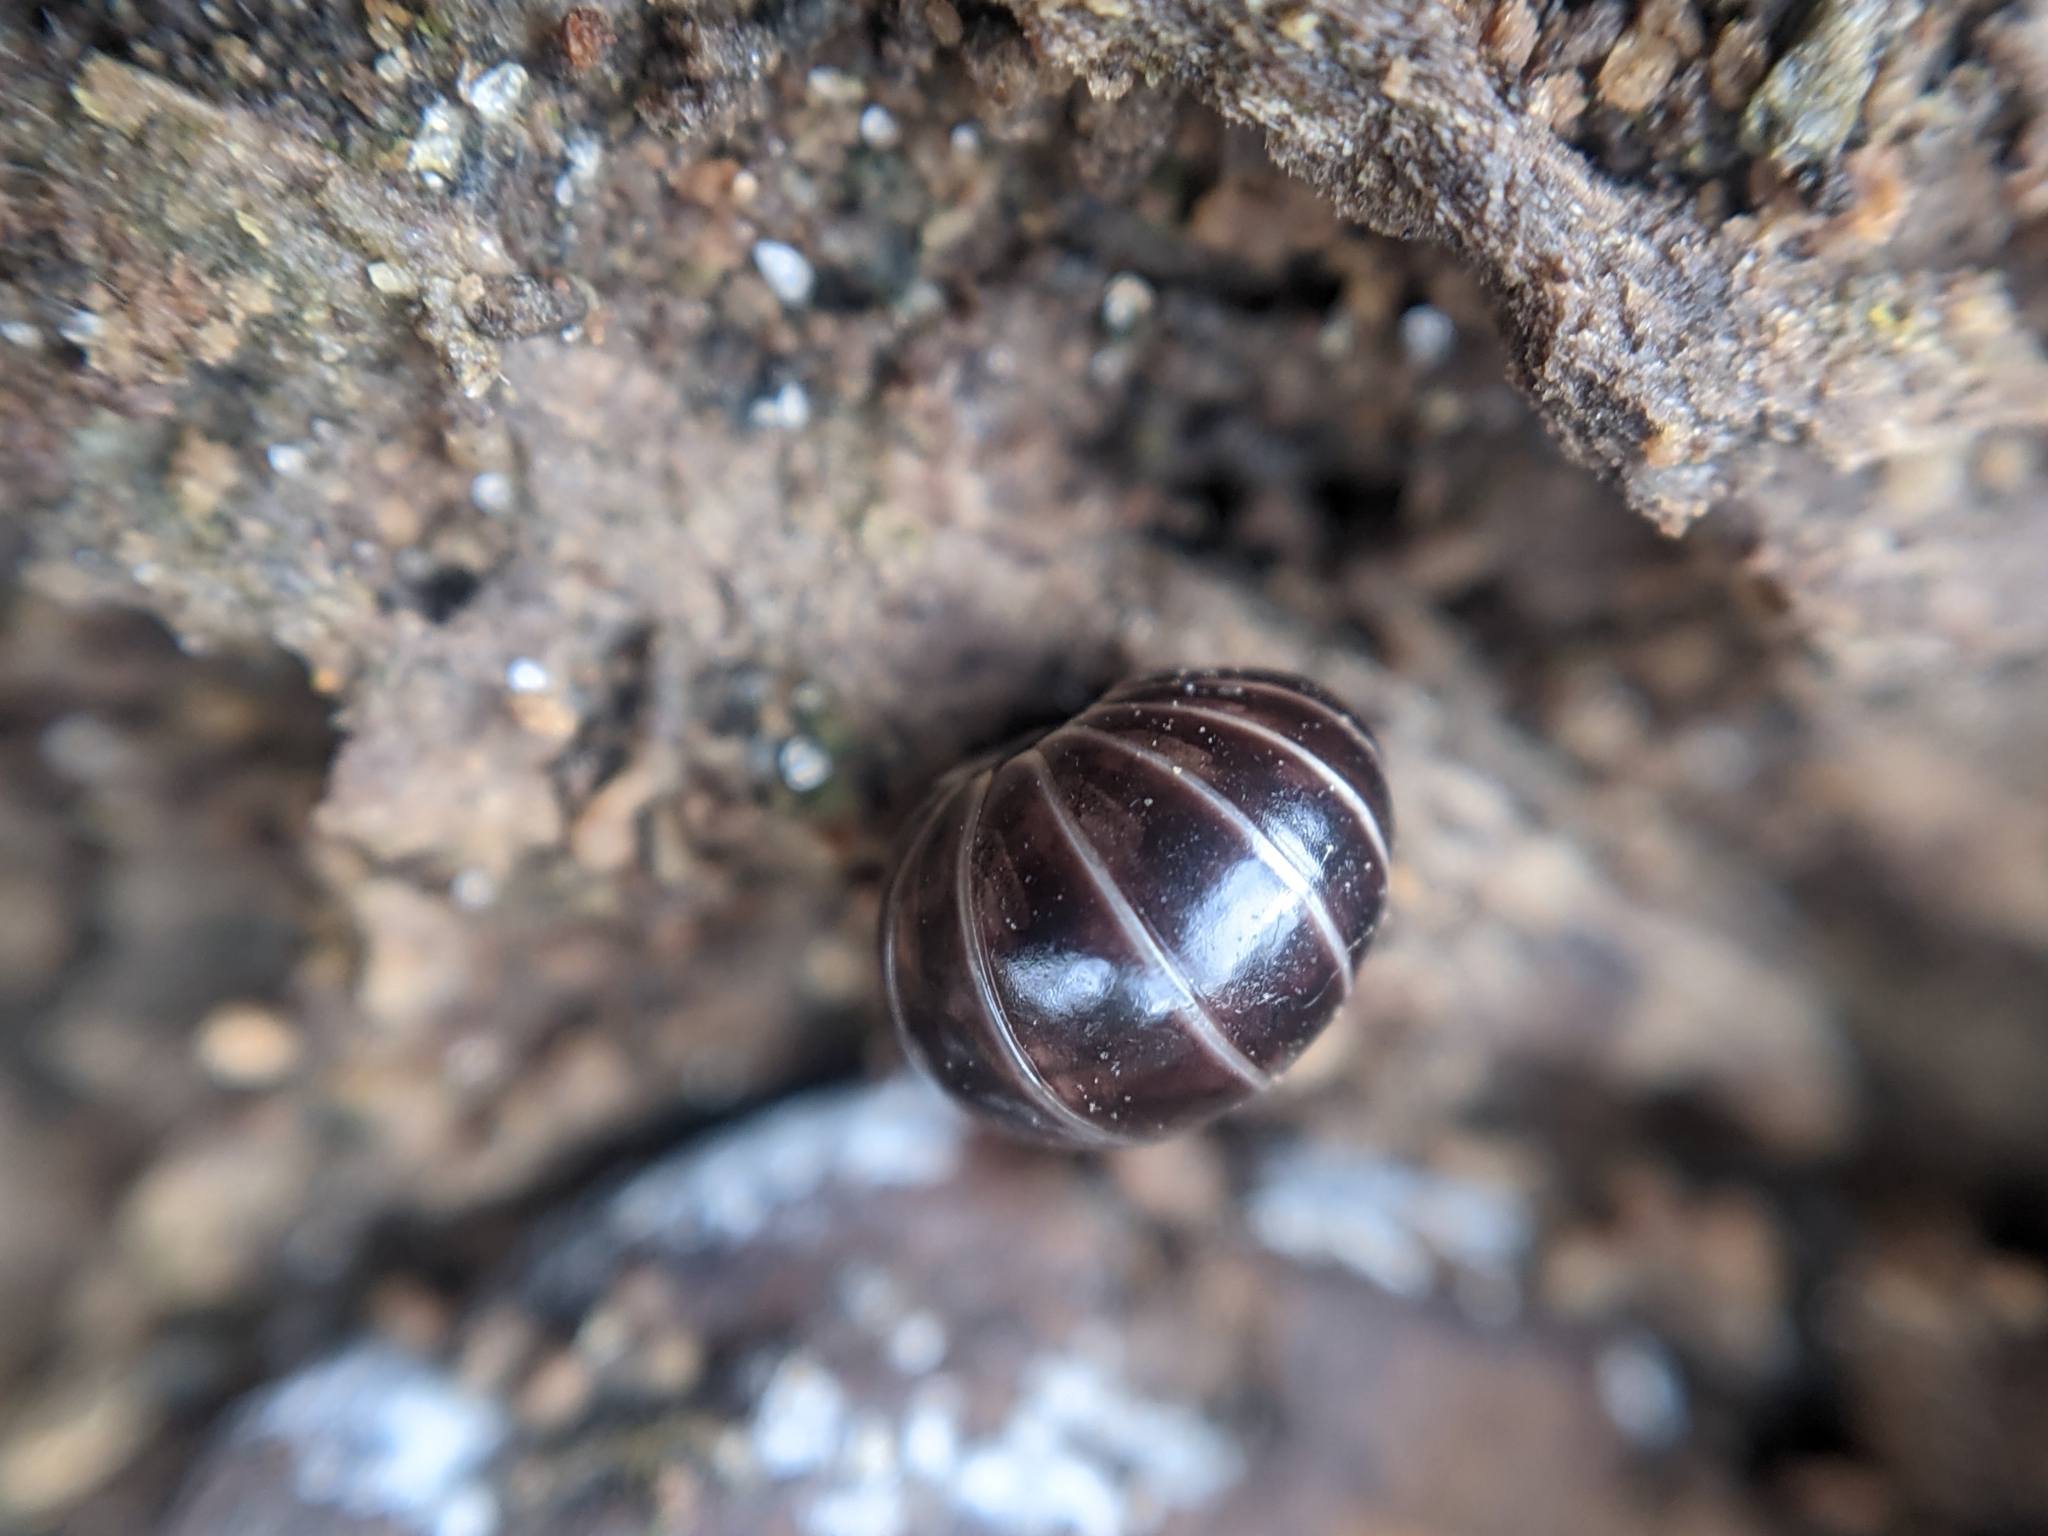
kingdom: Animalia
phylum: Arthropoda
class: Diplopoda
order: Glomerida
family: Glomeridae
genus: Glomeris
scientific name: Glomeris marginata
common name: Bordered pill millipede
